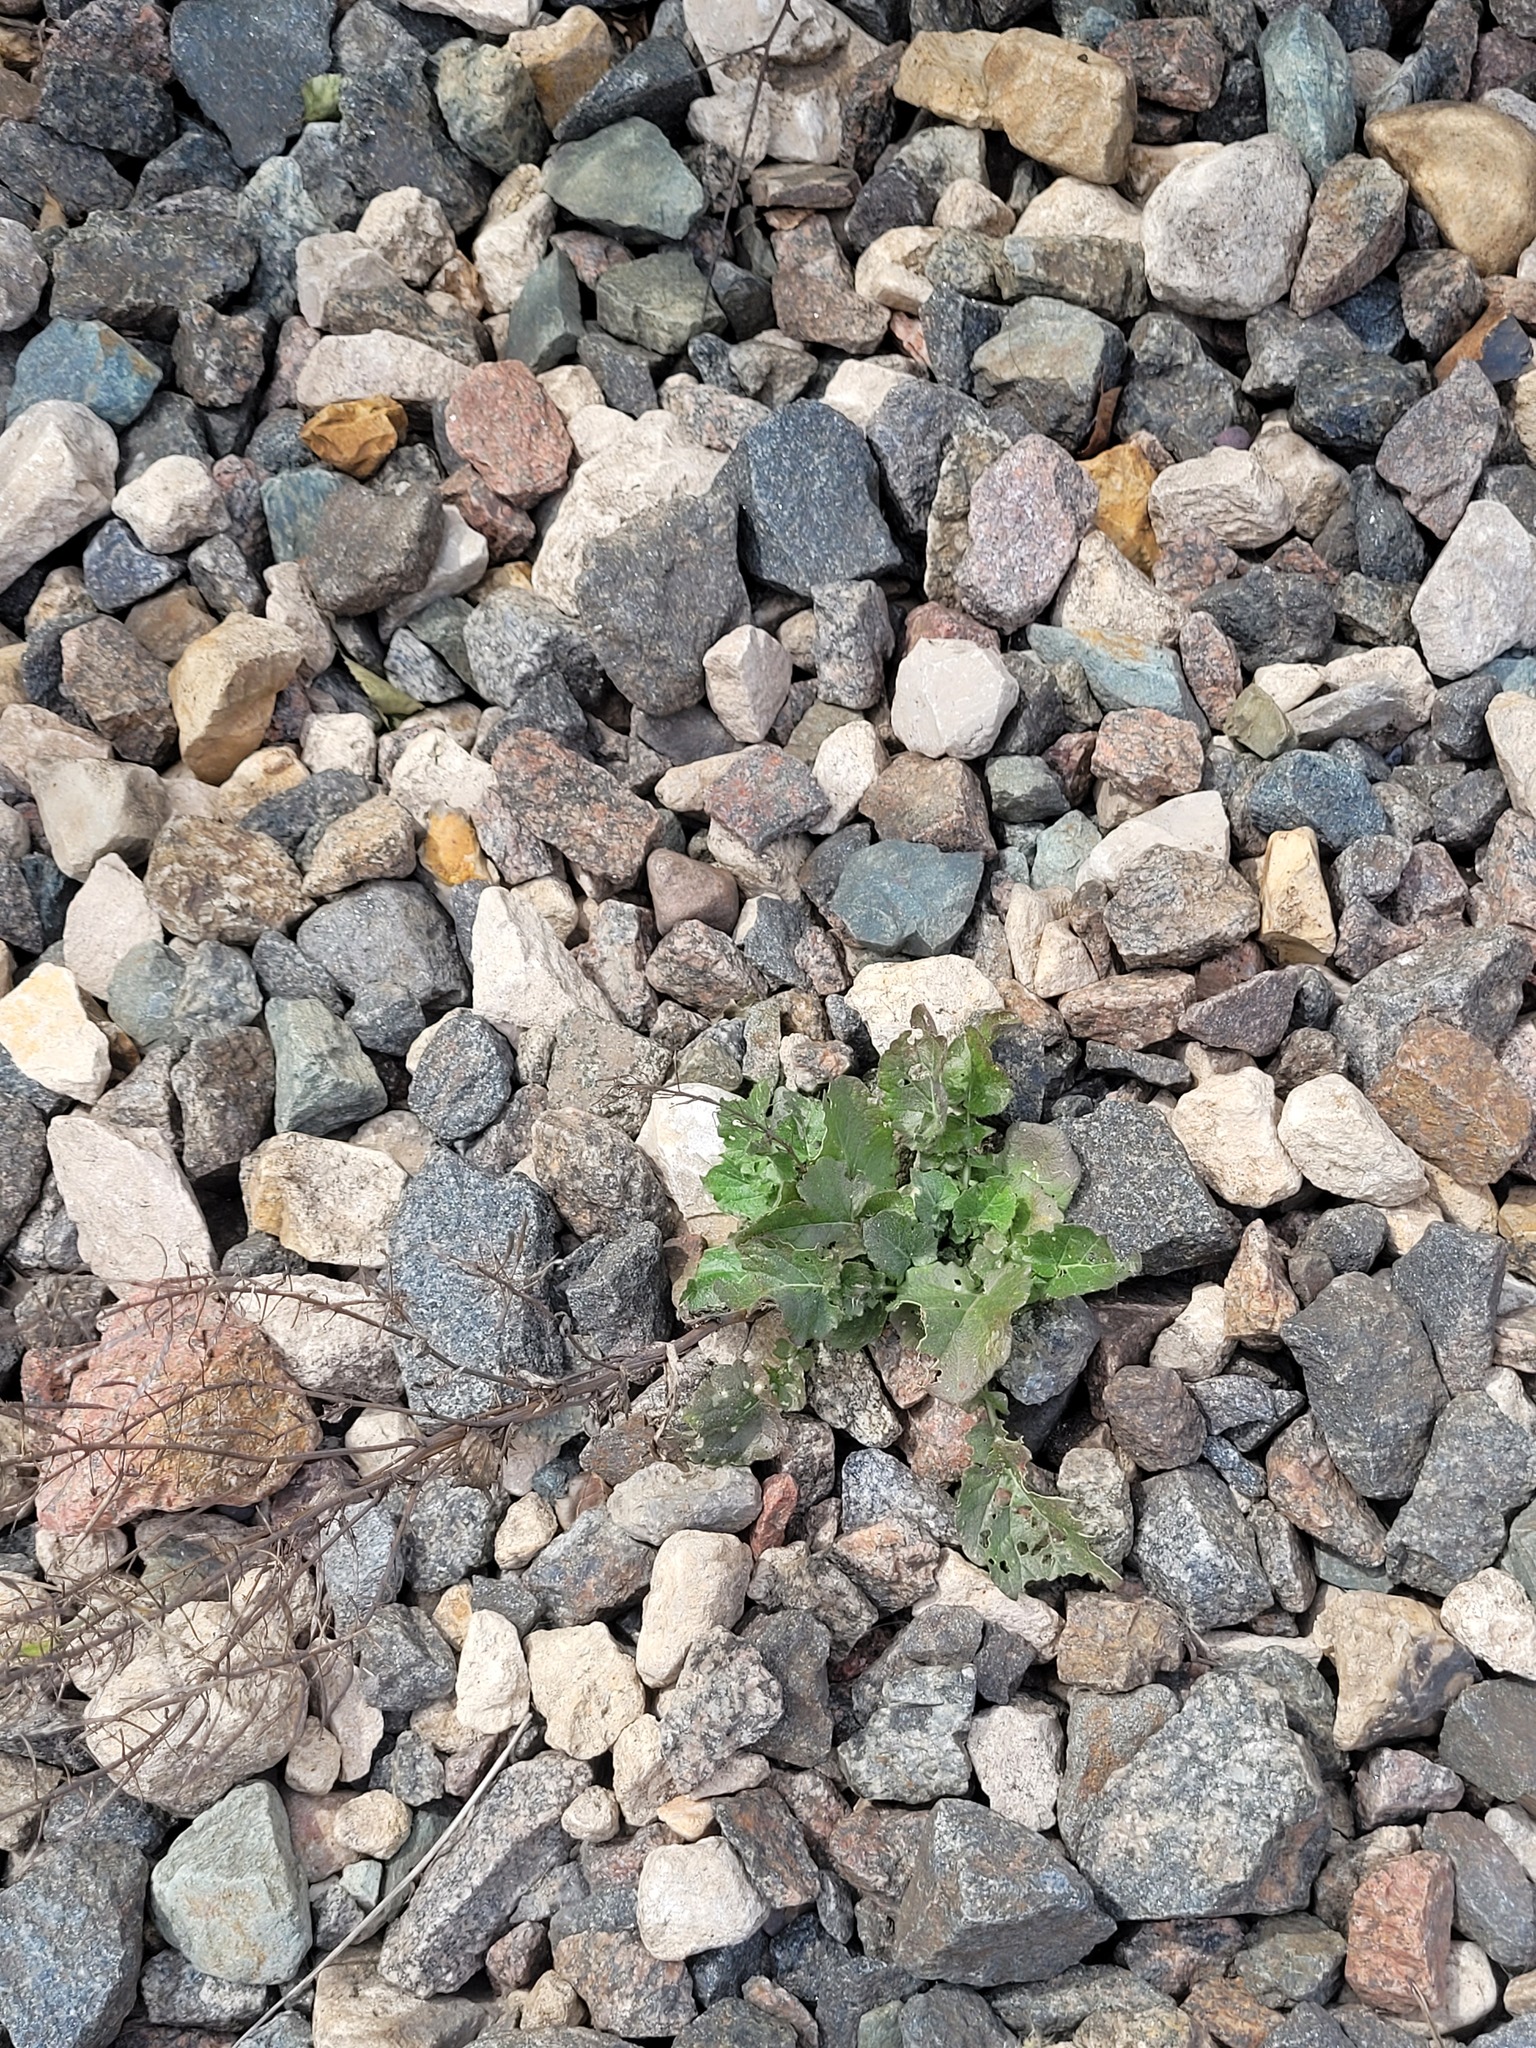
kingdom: Plantae
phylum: Tracheophyta
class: Magnoliopsida
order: Brassicales
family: Brassicaceae
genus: Barbarea
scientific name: Barbarea vulgaris
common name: Cressy-greens
